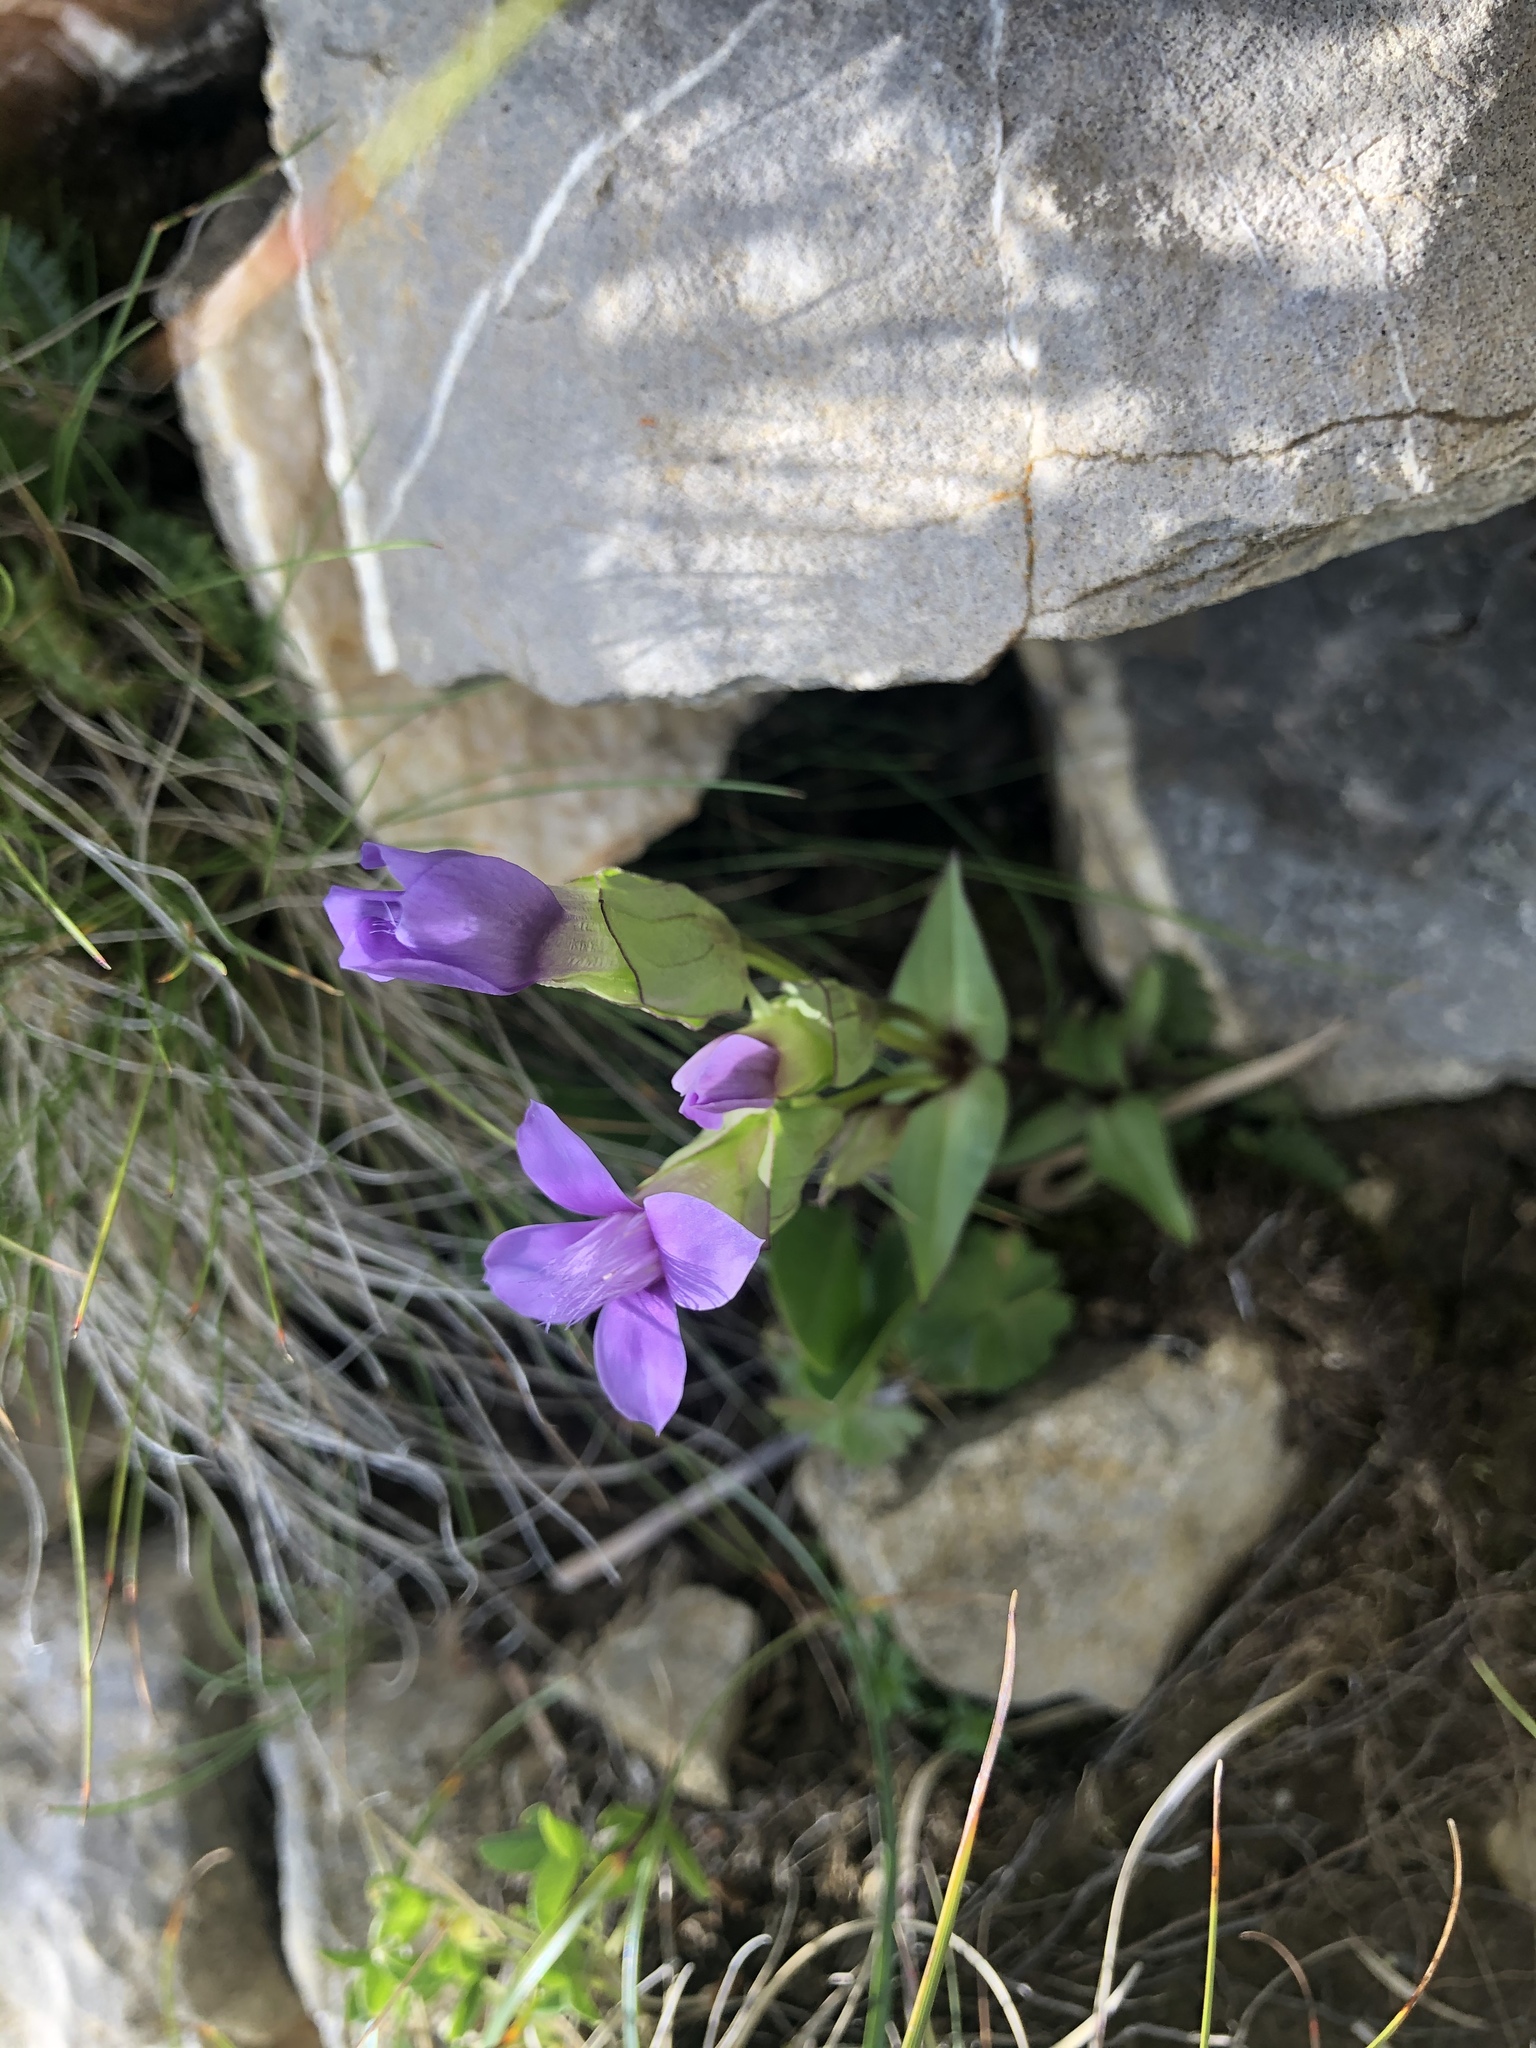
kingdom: Plantae
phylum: Tracheophyta
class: Magnoliopsida
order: Gentianales
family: Gentianaceae
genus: Gentianella
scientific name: Gentianella campestris
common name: Field gentian
